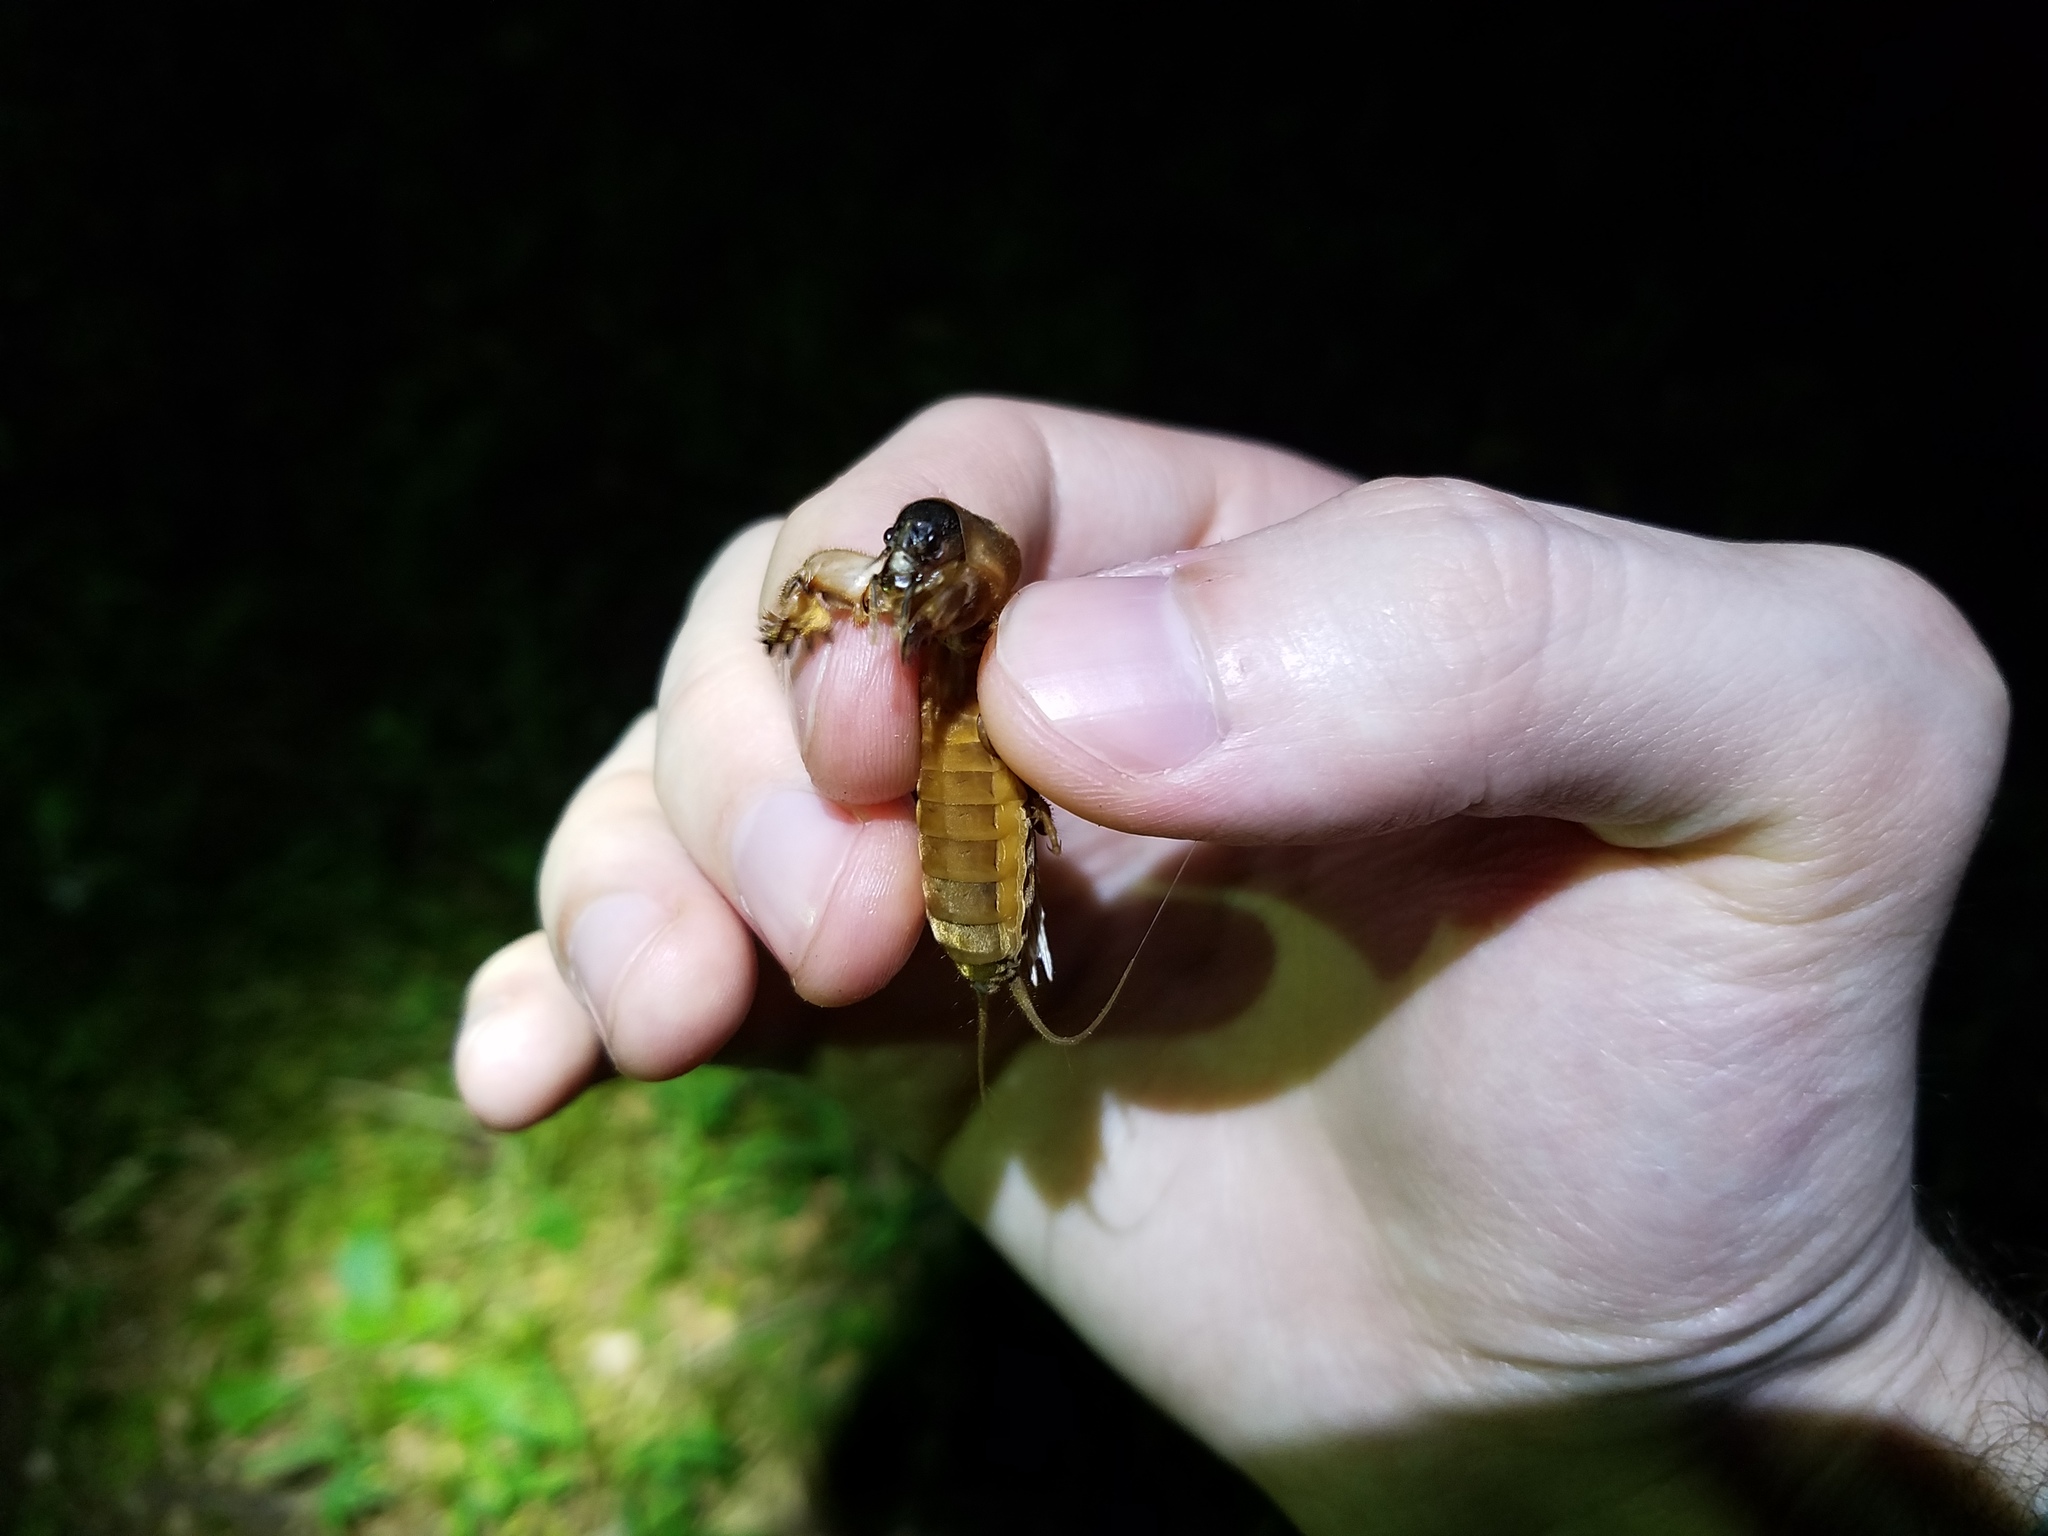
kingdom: Animalia
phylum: Arthropoda
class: Insecta
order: Orthoptera
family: Gryllotalpidae
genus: Neocurtilla
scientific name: Neocurtilla hexadactyla
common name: Northern mole cricket
